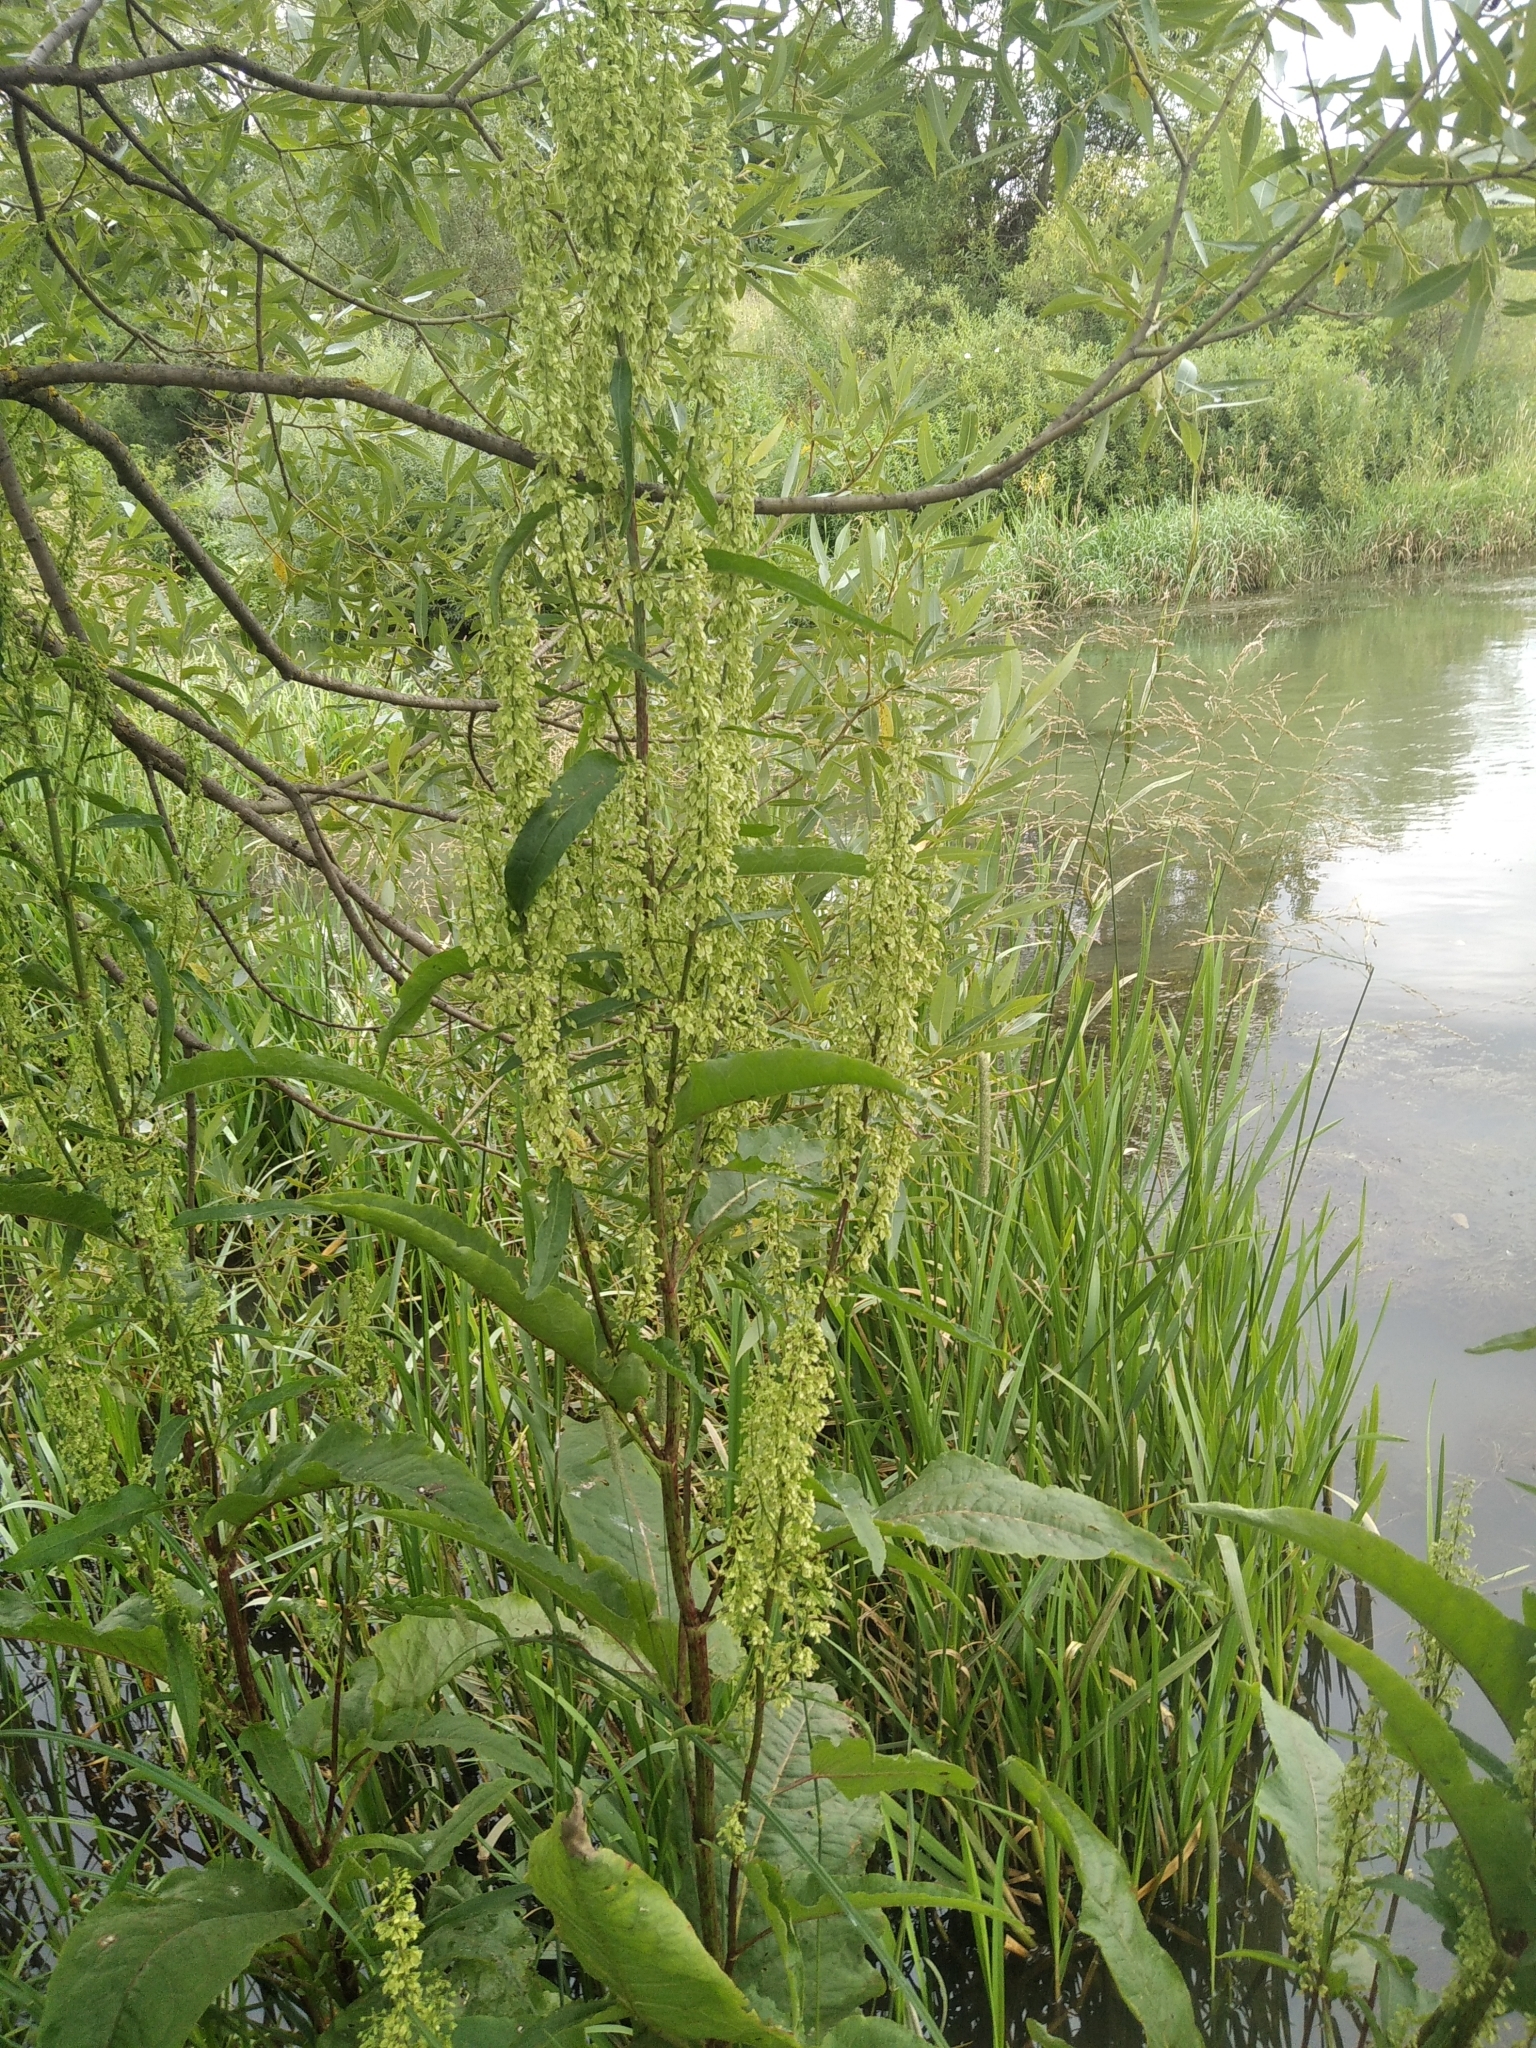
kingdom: Plantae
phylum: Tracheophyta
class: Magnoliopsida
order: Caryophyllales
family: Polygonaceae
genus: Rumex
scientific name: Rumex aquaticus
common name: Scottish dock
